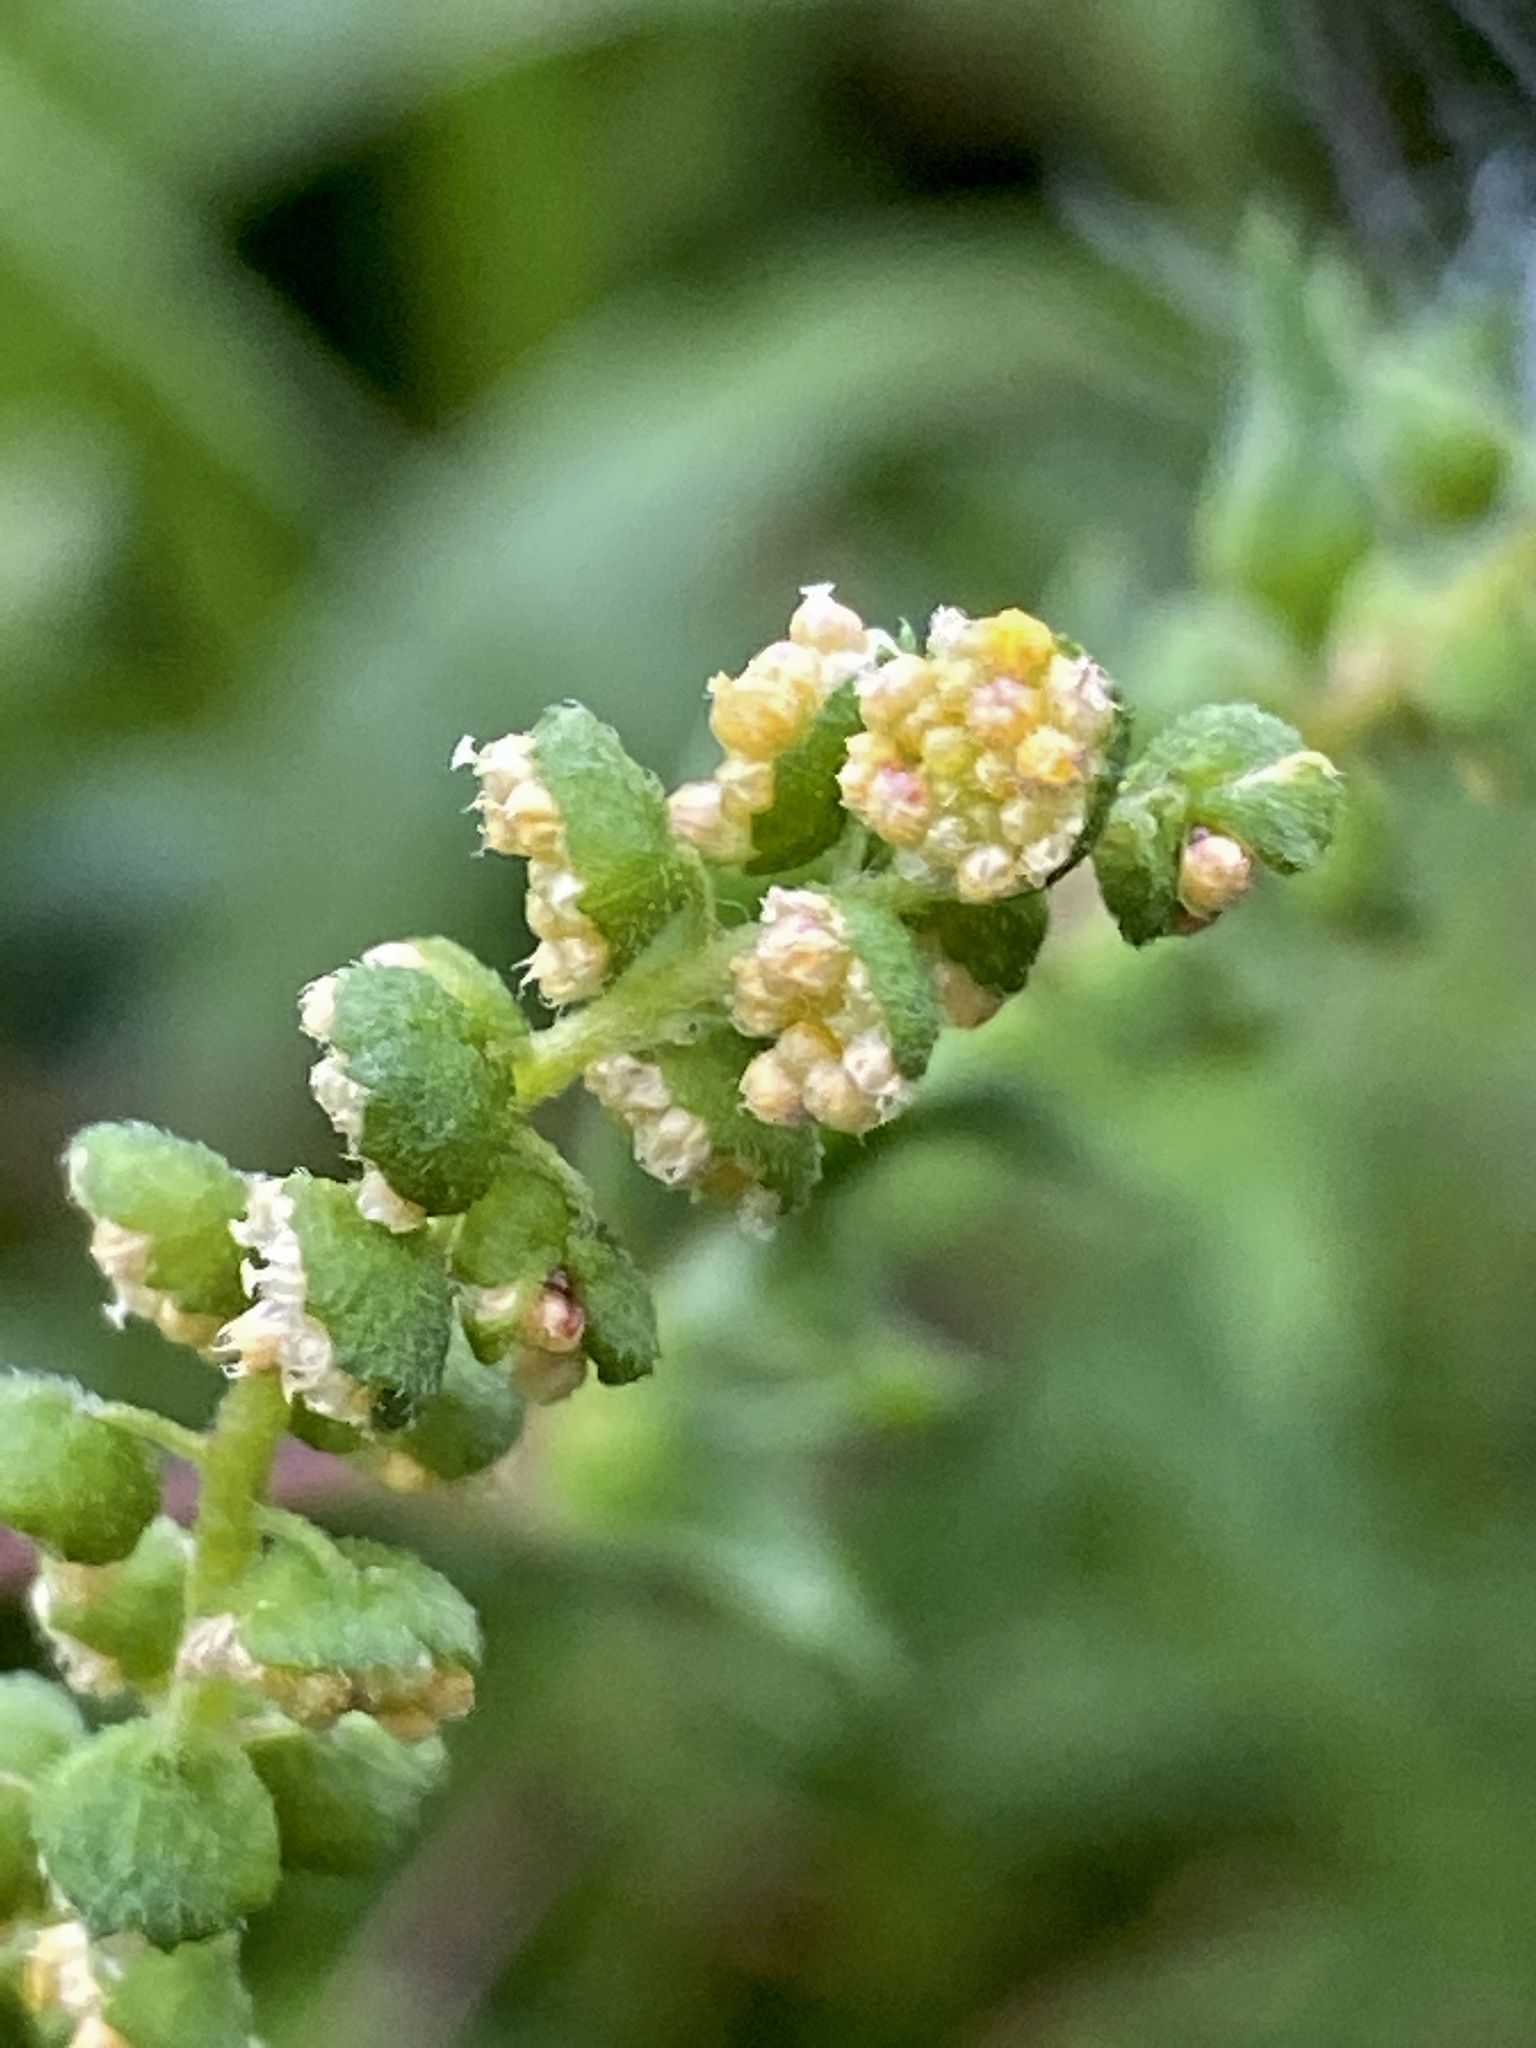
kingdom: Plantae
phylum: Tracheophyta
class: Magnoliopsida
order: Asterales
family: Asteraceae
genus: Ambrosia
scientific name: Ambrosia artemisiifolia
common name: Annual ragweed
